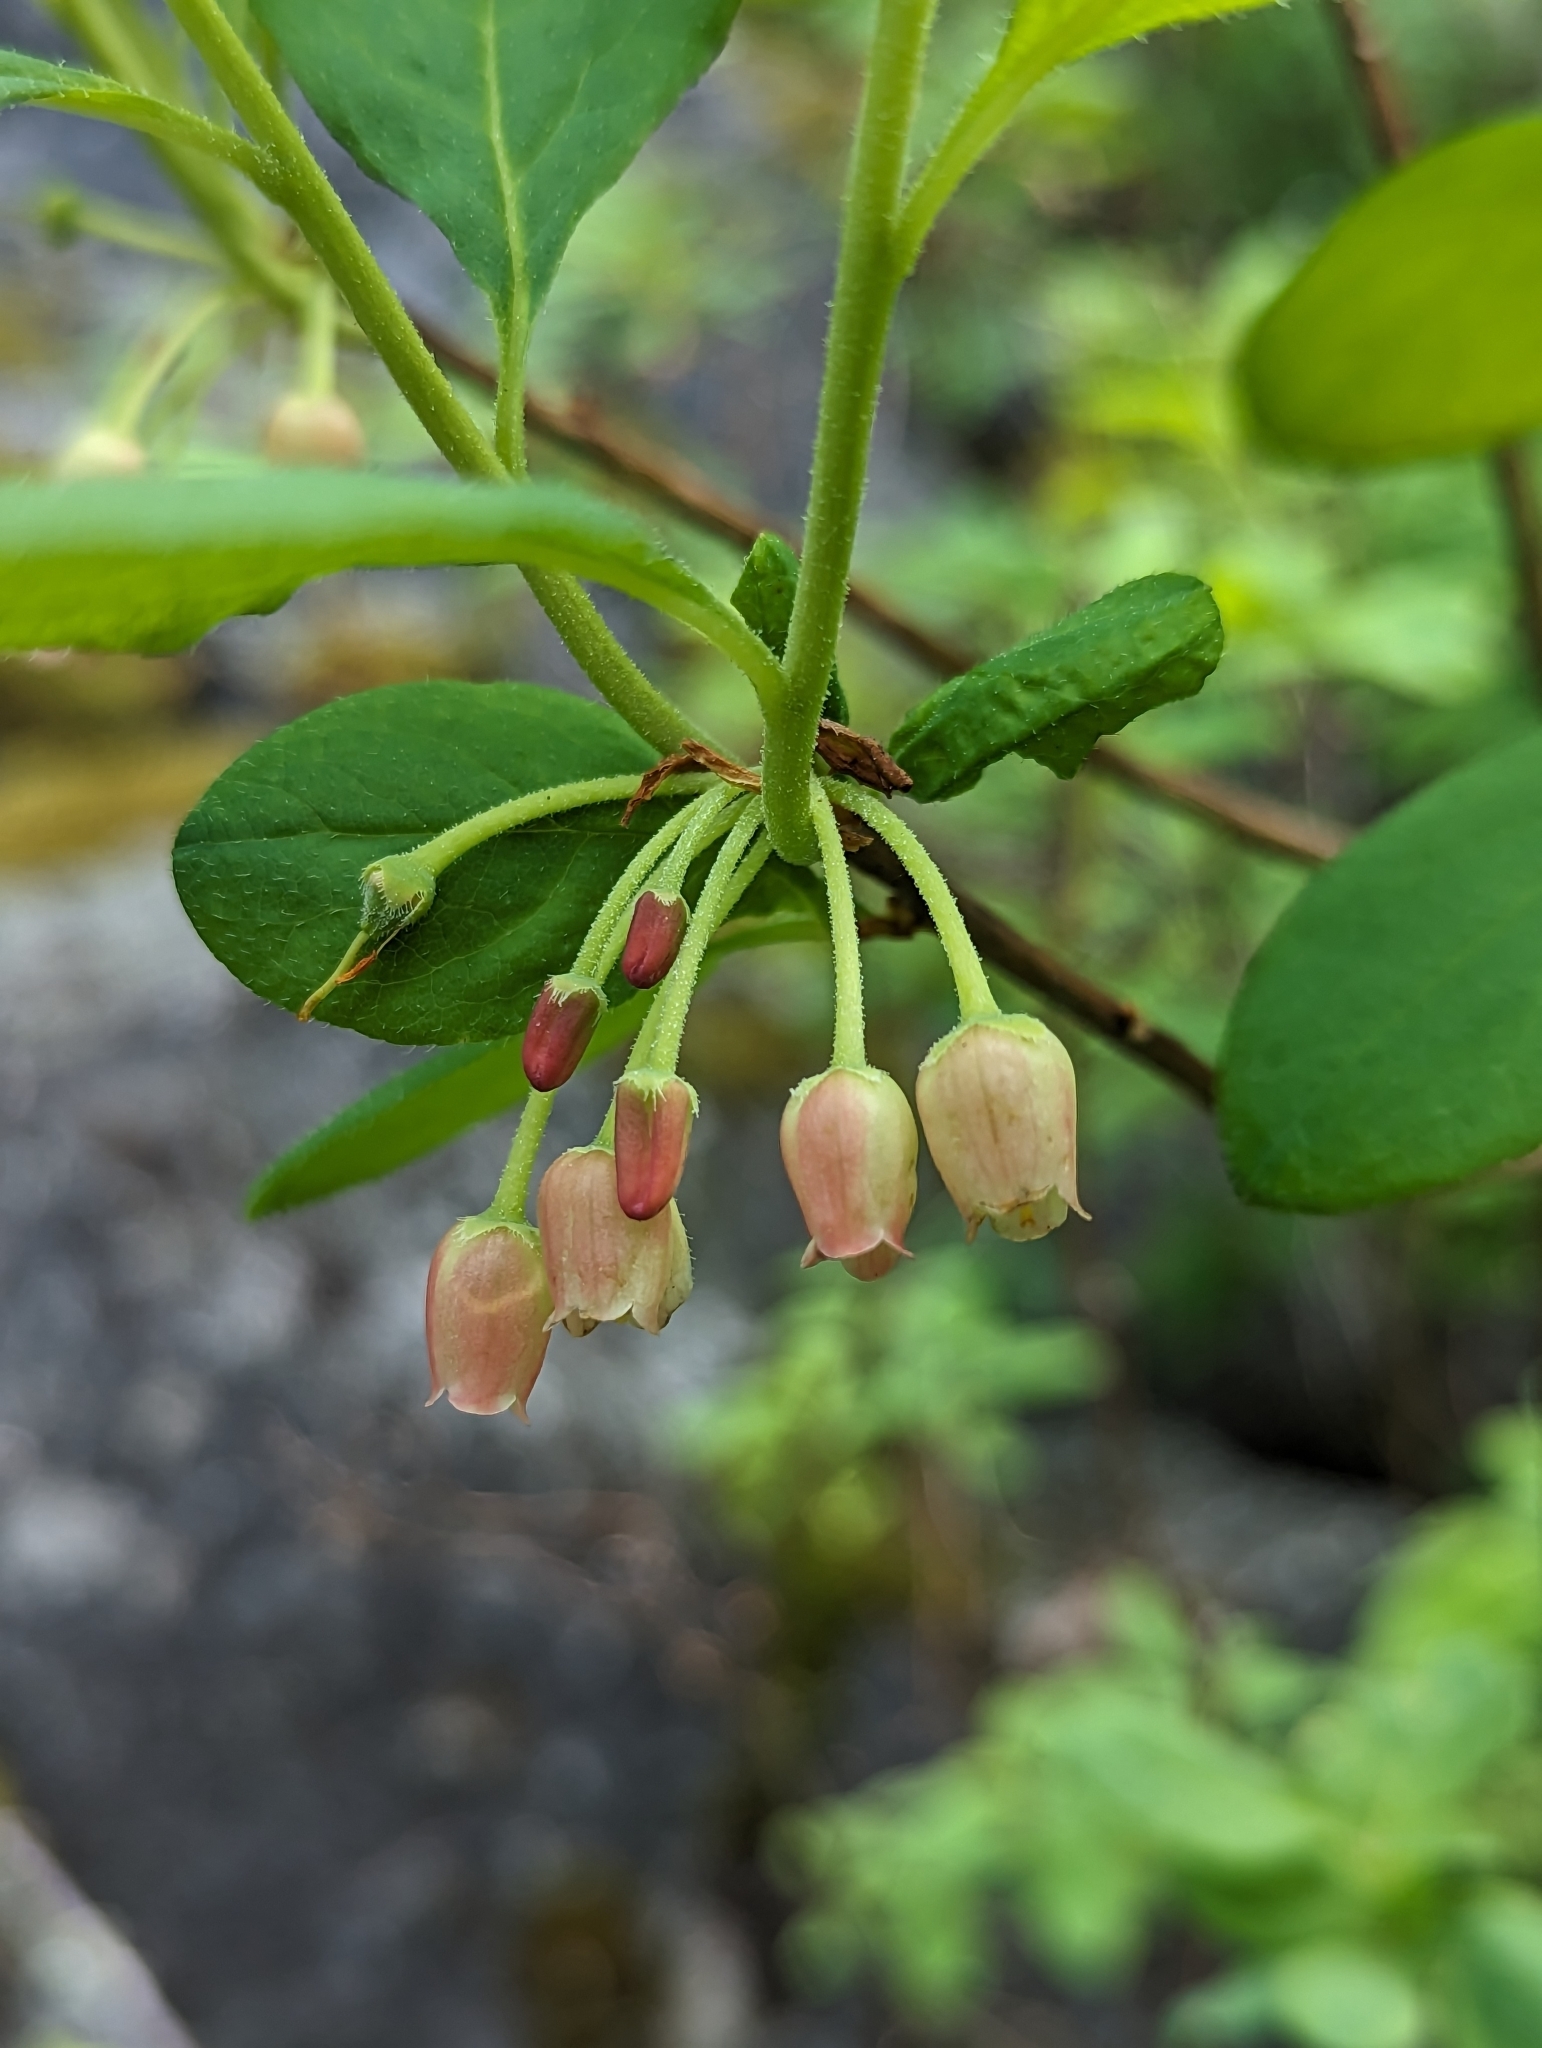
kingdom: Plantae
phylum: Tracheophyta
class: Magnoliopsida
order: Ericales
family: Ericaceae
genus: Rhododendron
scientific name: Rhododendron menziesii
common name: Pacific menziesia
